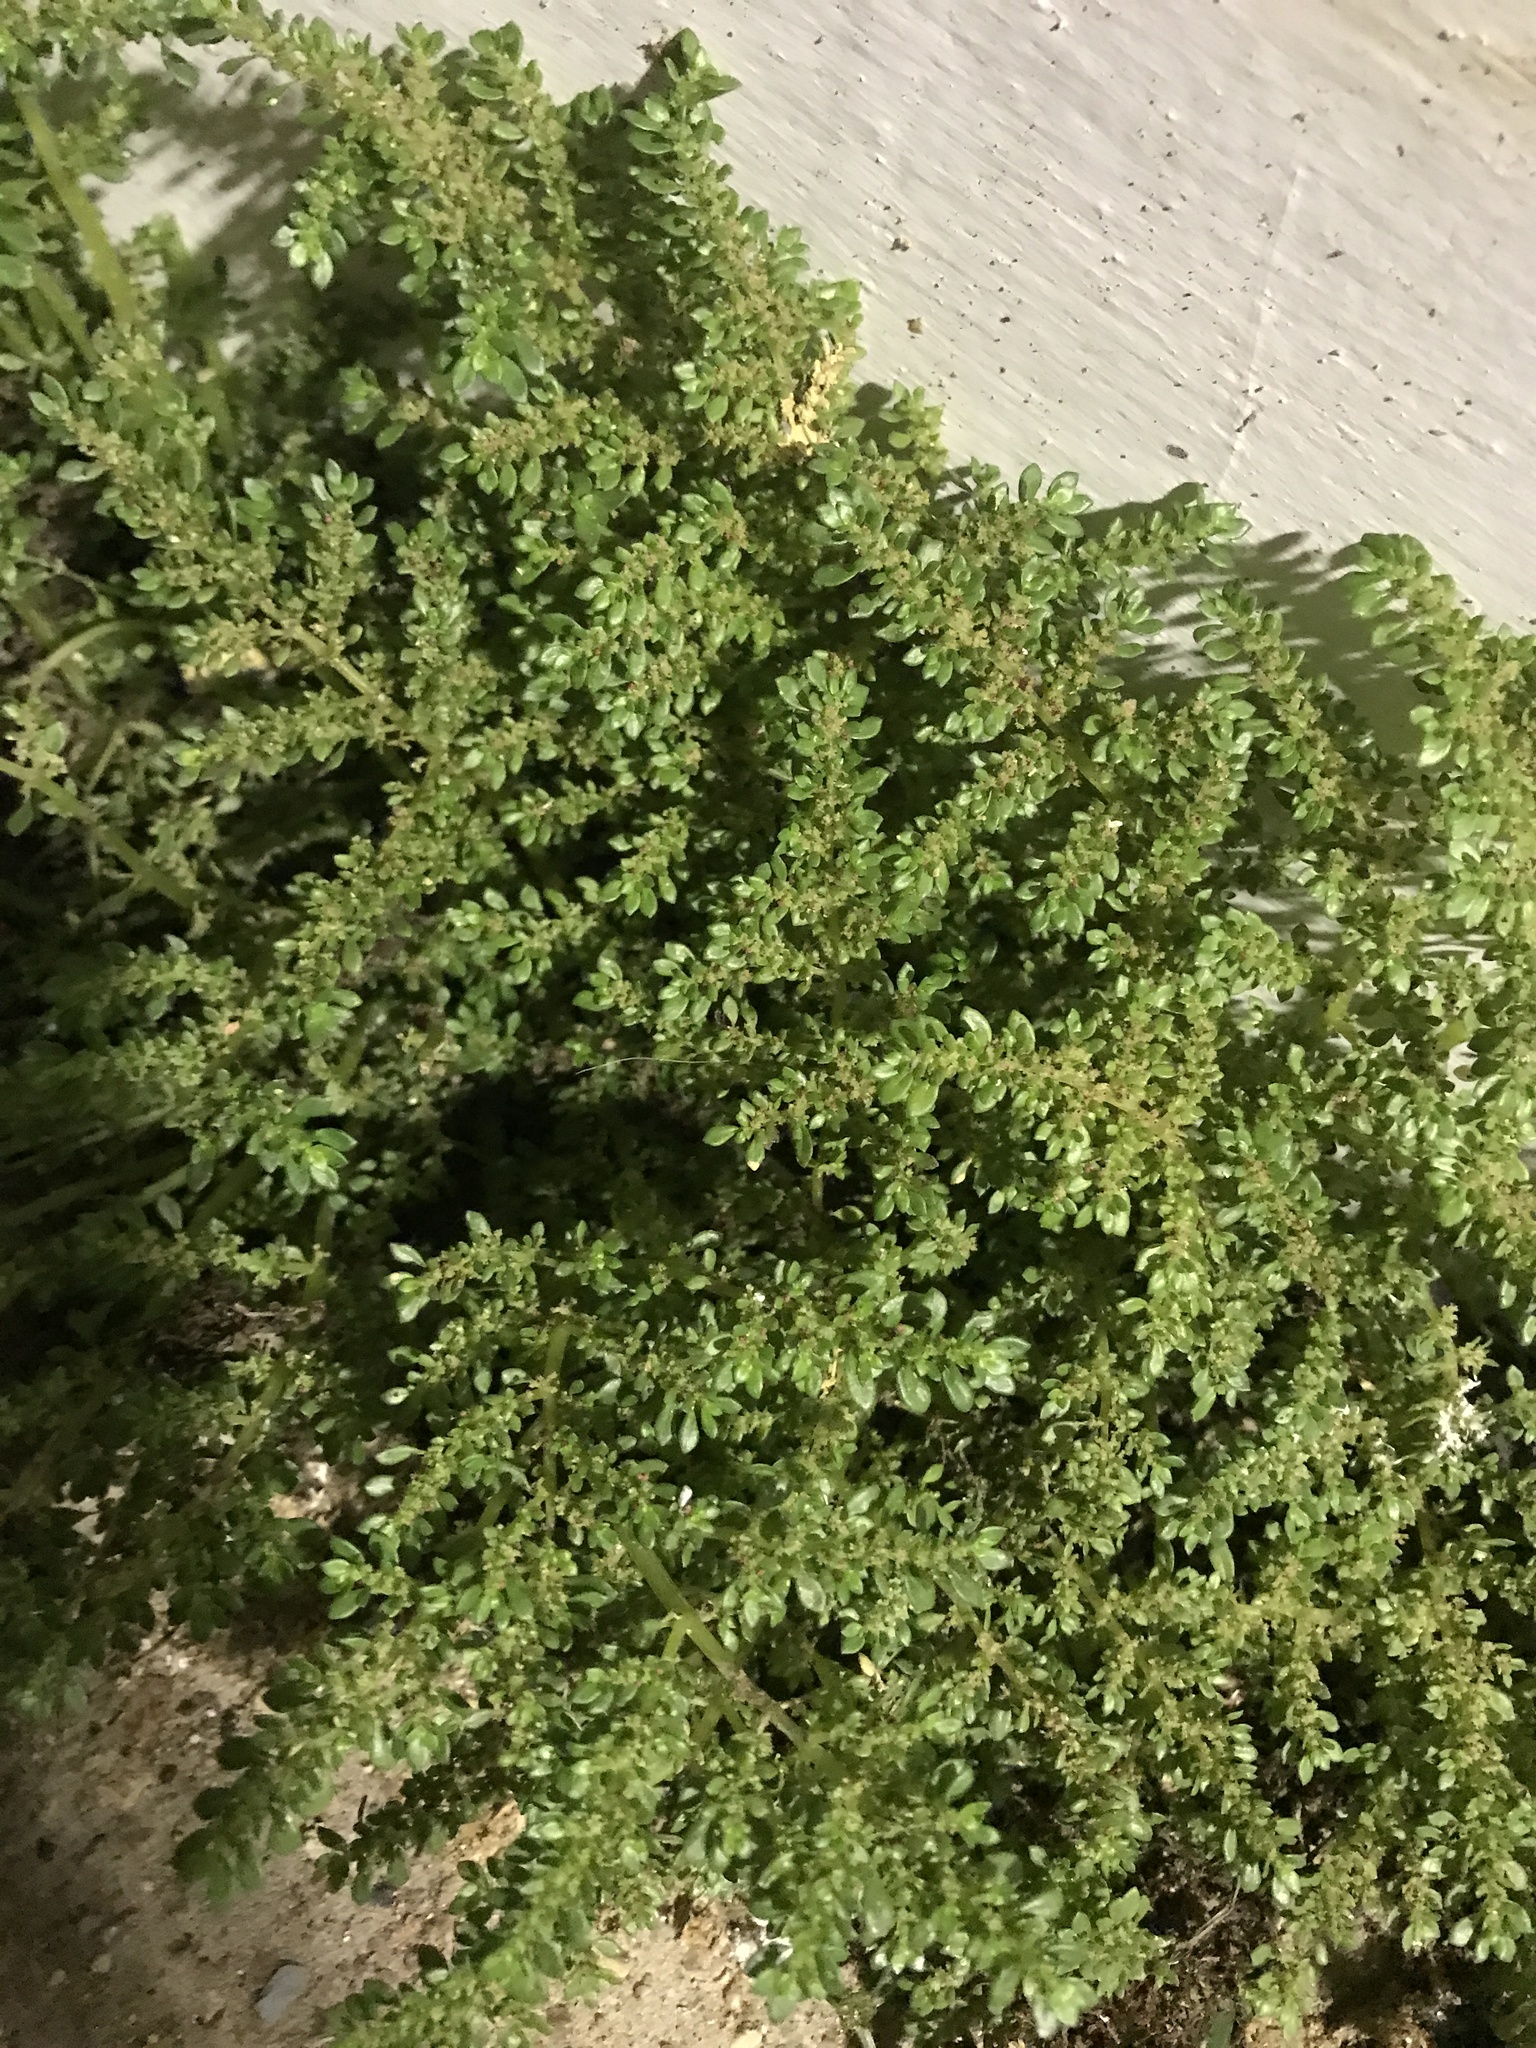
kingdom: Plantae
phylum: Tracheophyta
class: Magnoliopsida
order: Rosales
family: Urticaceae
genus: Pilea
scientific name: Pilea microphylla
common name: Artillery-plant
